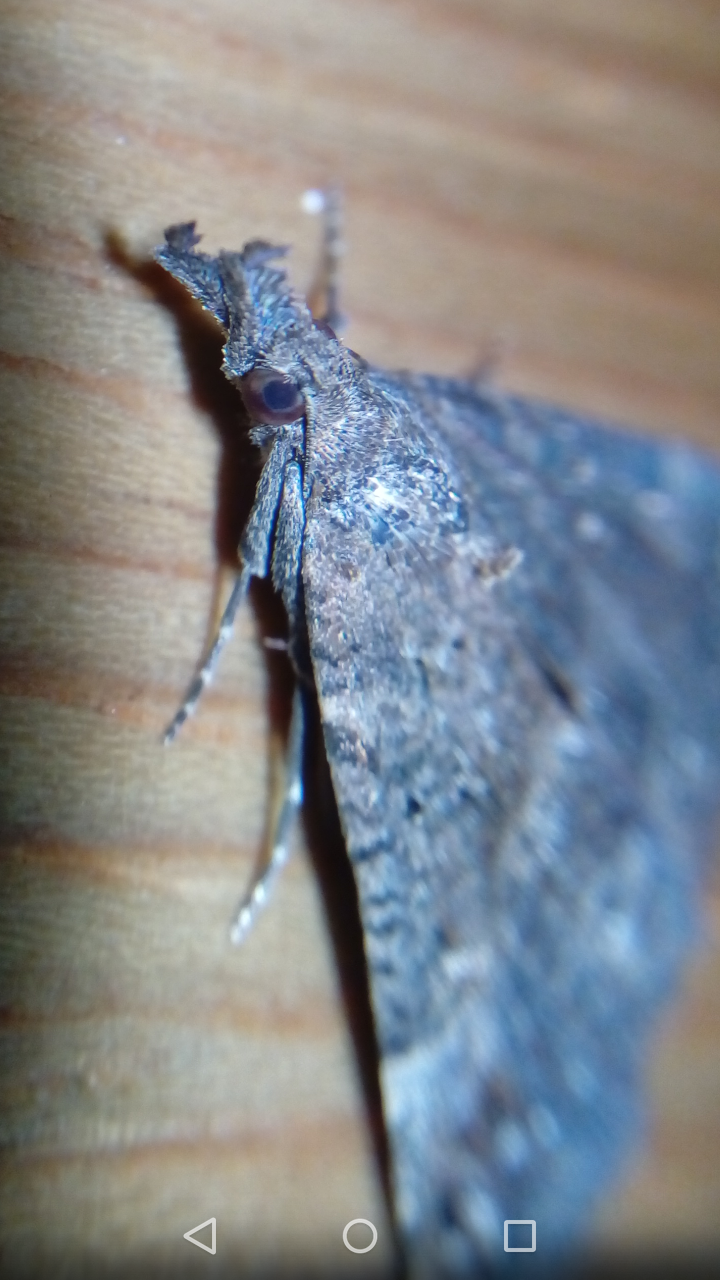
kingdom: Animalia
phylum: Arthropoda
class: Insecta
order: Lepidoptera
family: Erebidae
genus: Hypena
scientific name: Hypena obsitalis
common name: Bloxworth snout
